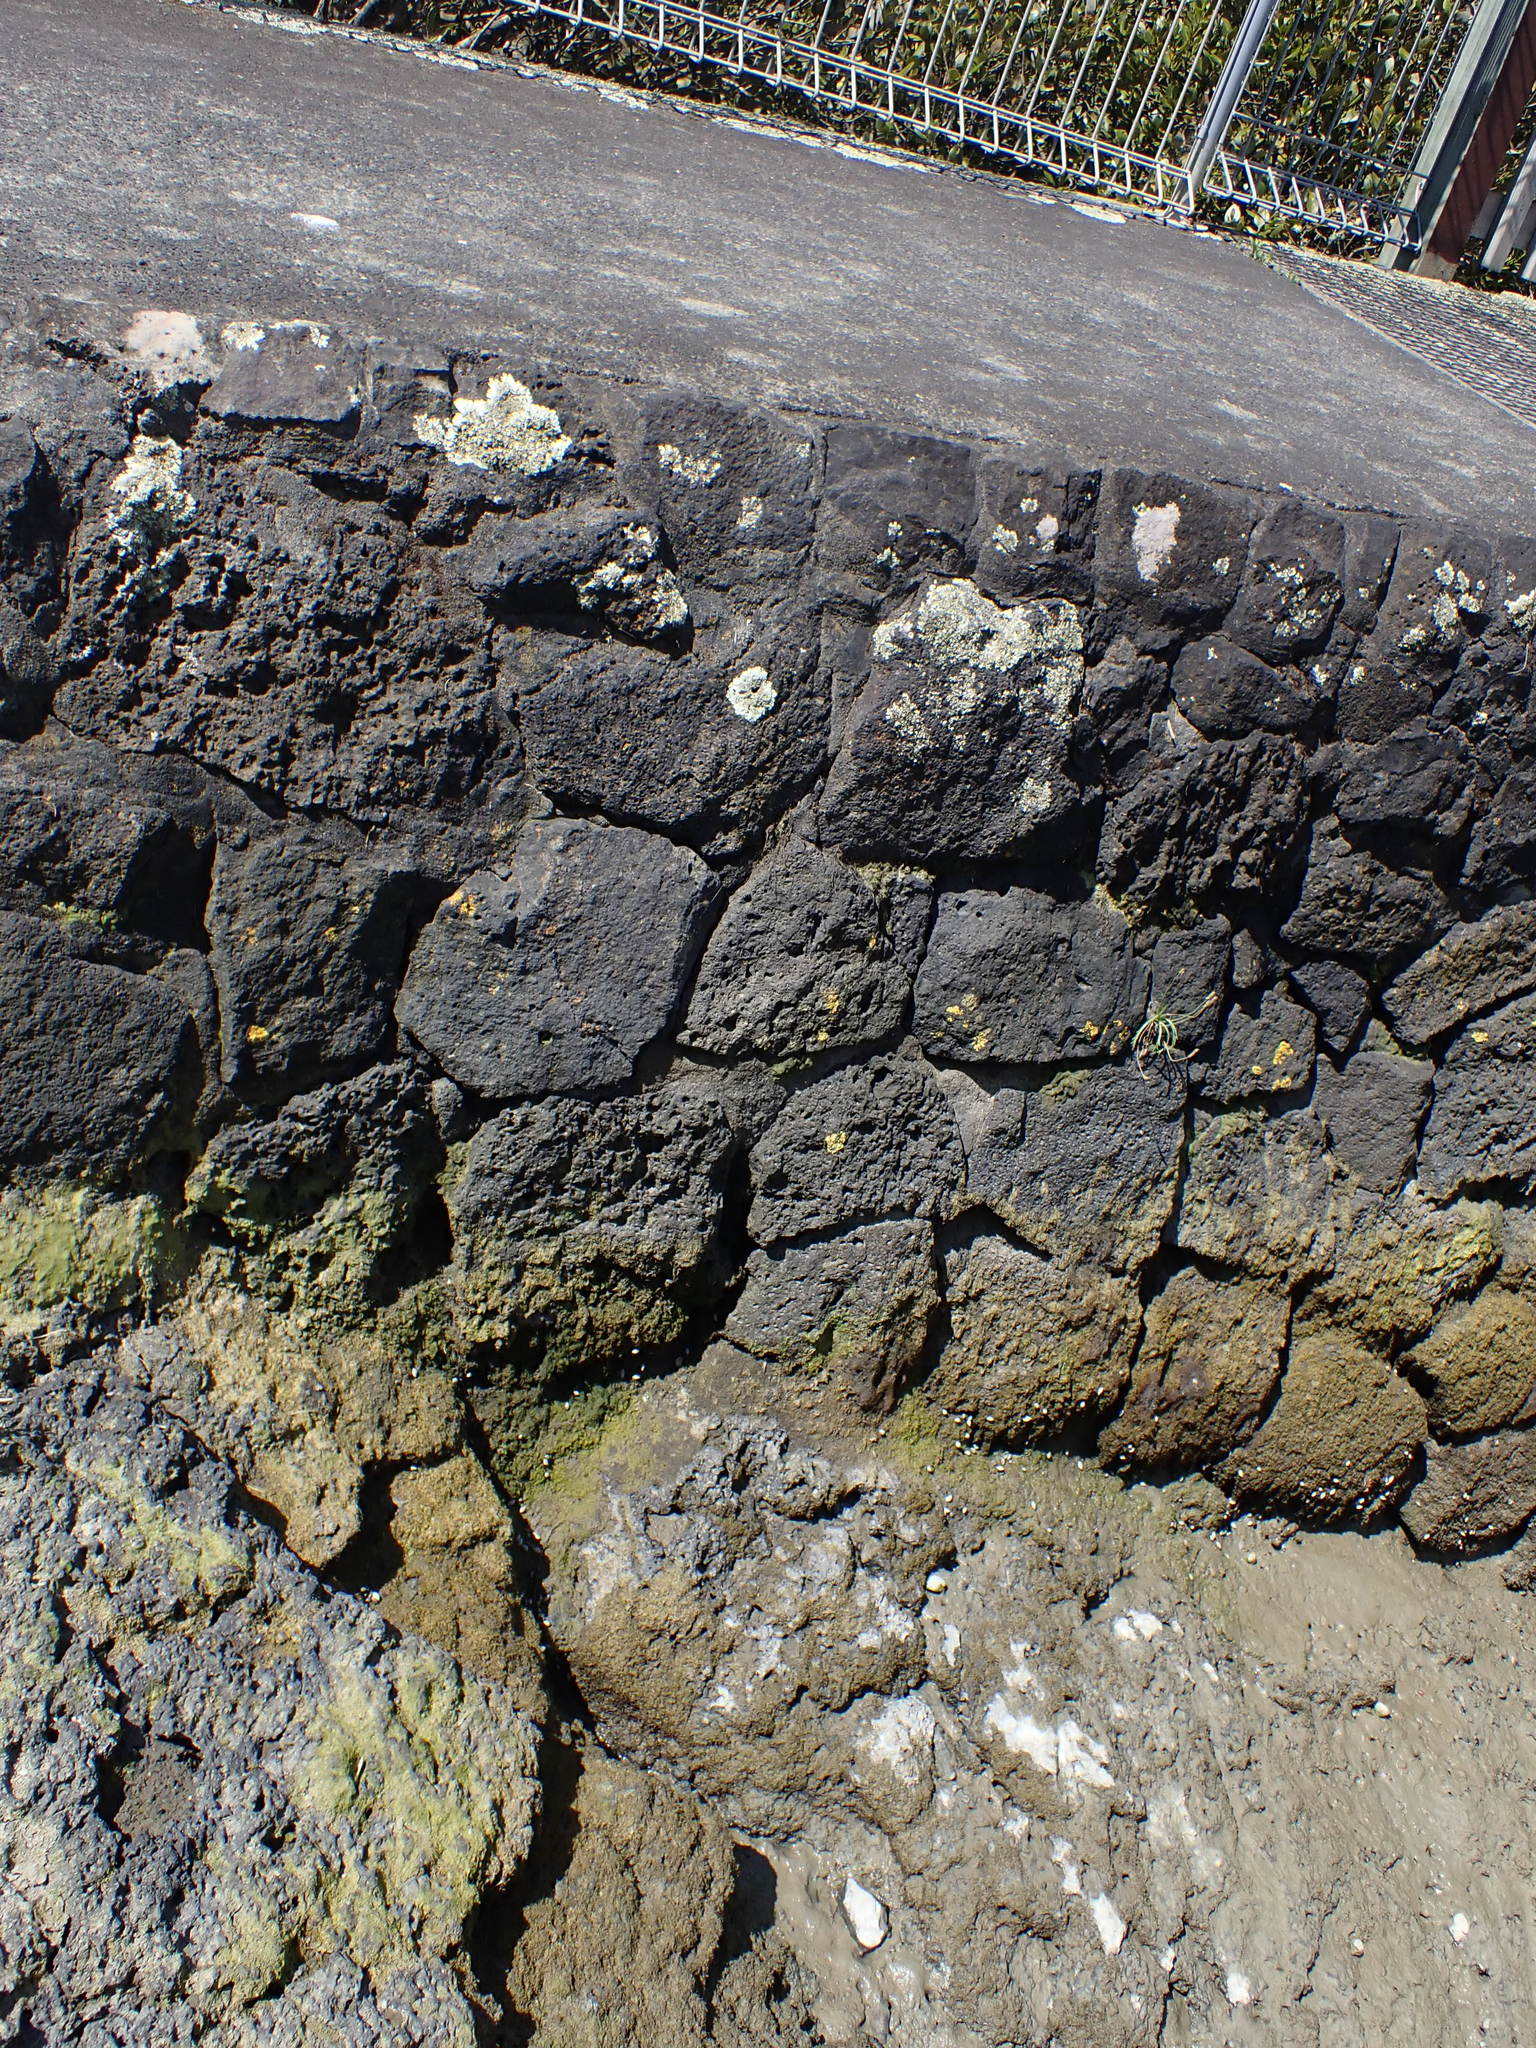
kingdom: Animalia
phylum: Arthropoda
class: Malacostraca
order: Decapoda
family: Varunidae
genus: Austrohelice
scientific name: Austrohelice crassa
